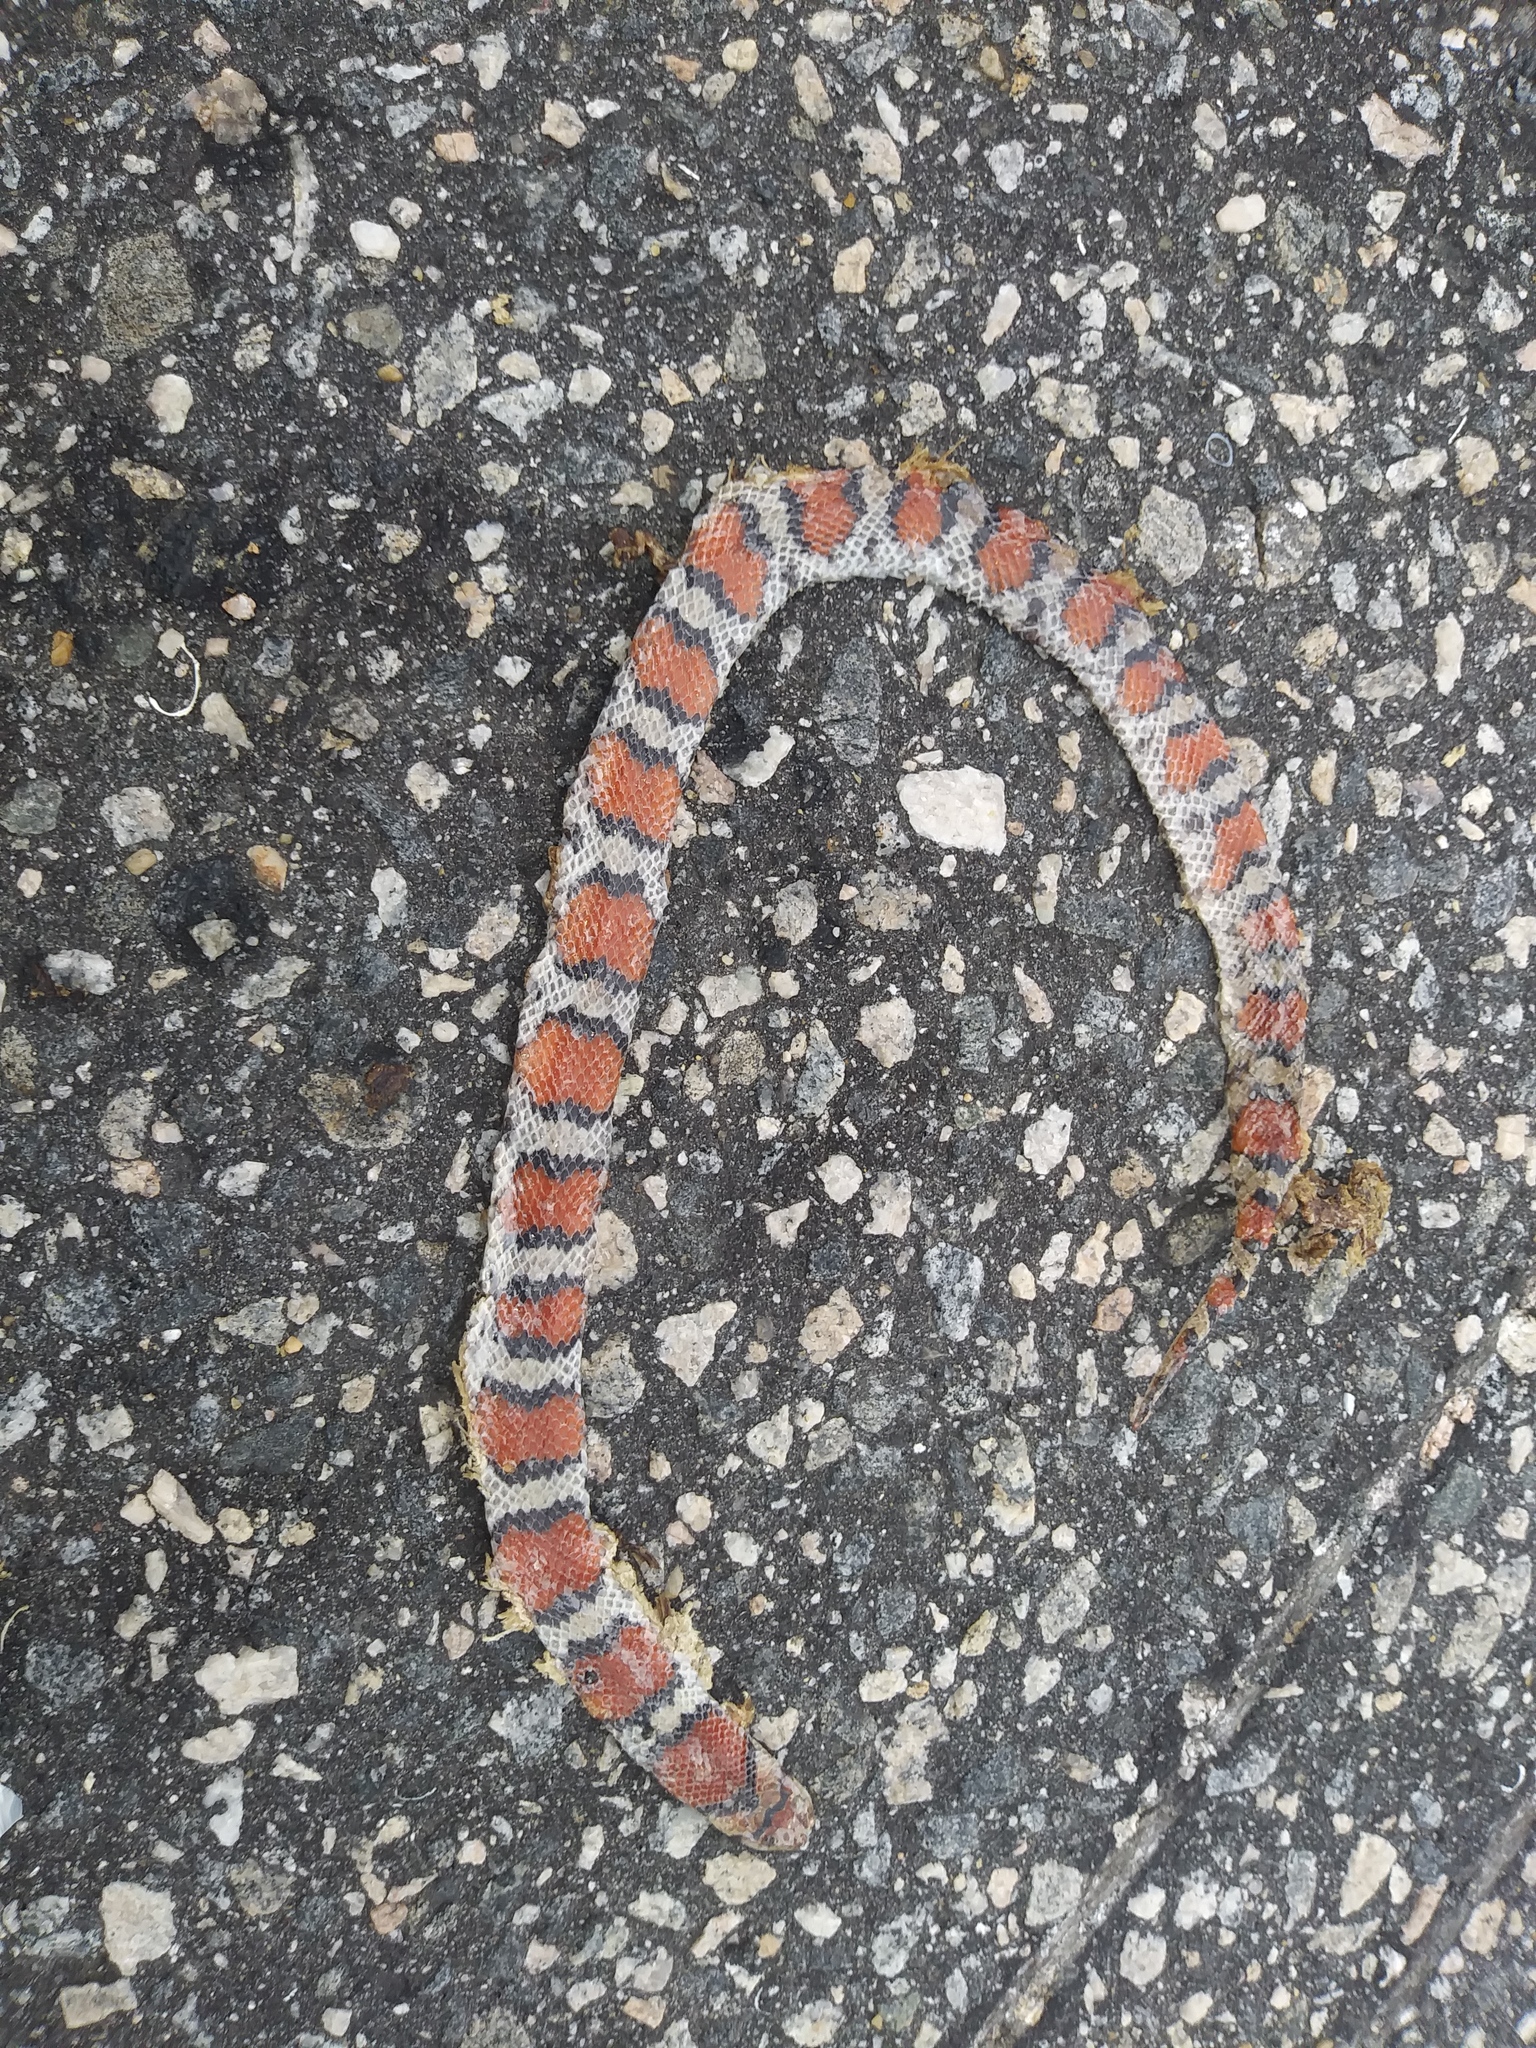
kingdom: Animalia
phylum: Chordata
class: Squamata
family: Colubridae
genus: Cemophora
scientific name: Cemophora coccinea
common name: Scarlet snake
